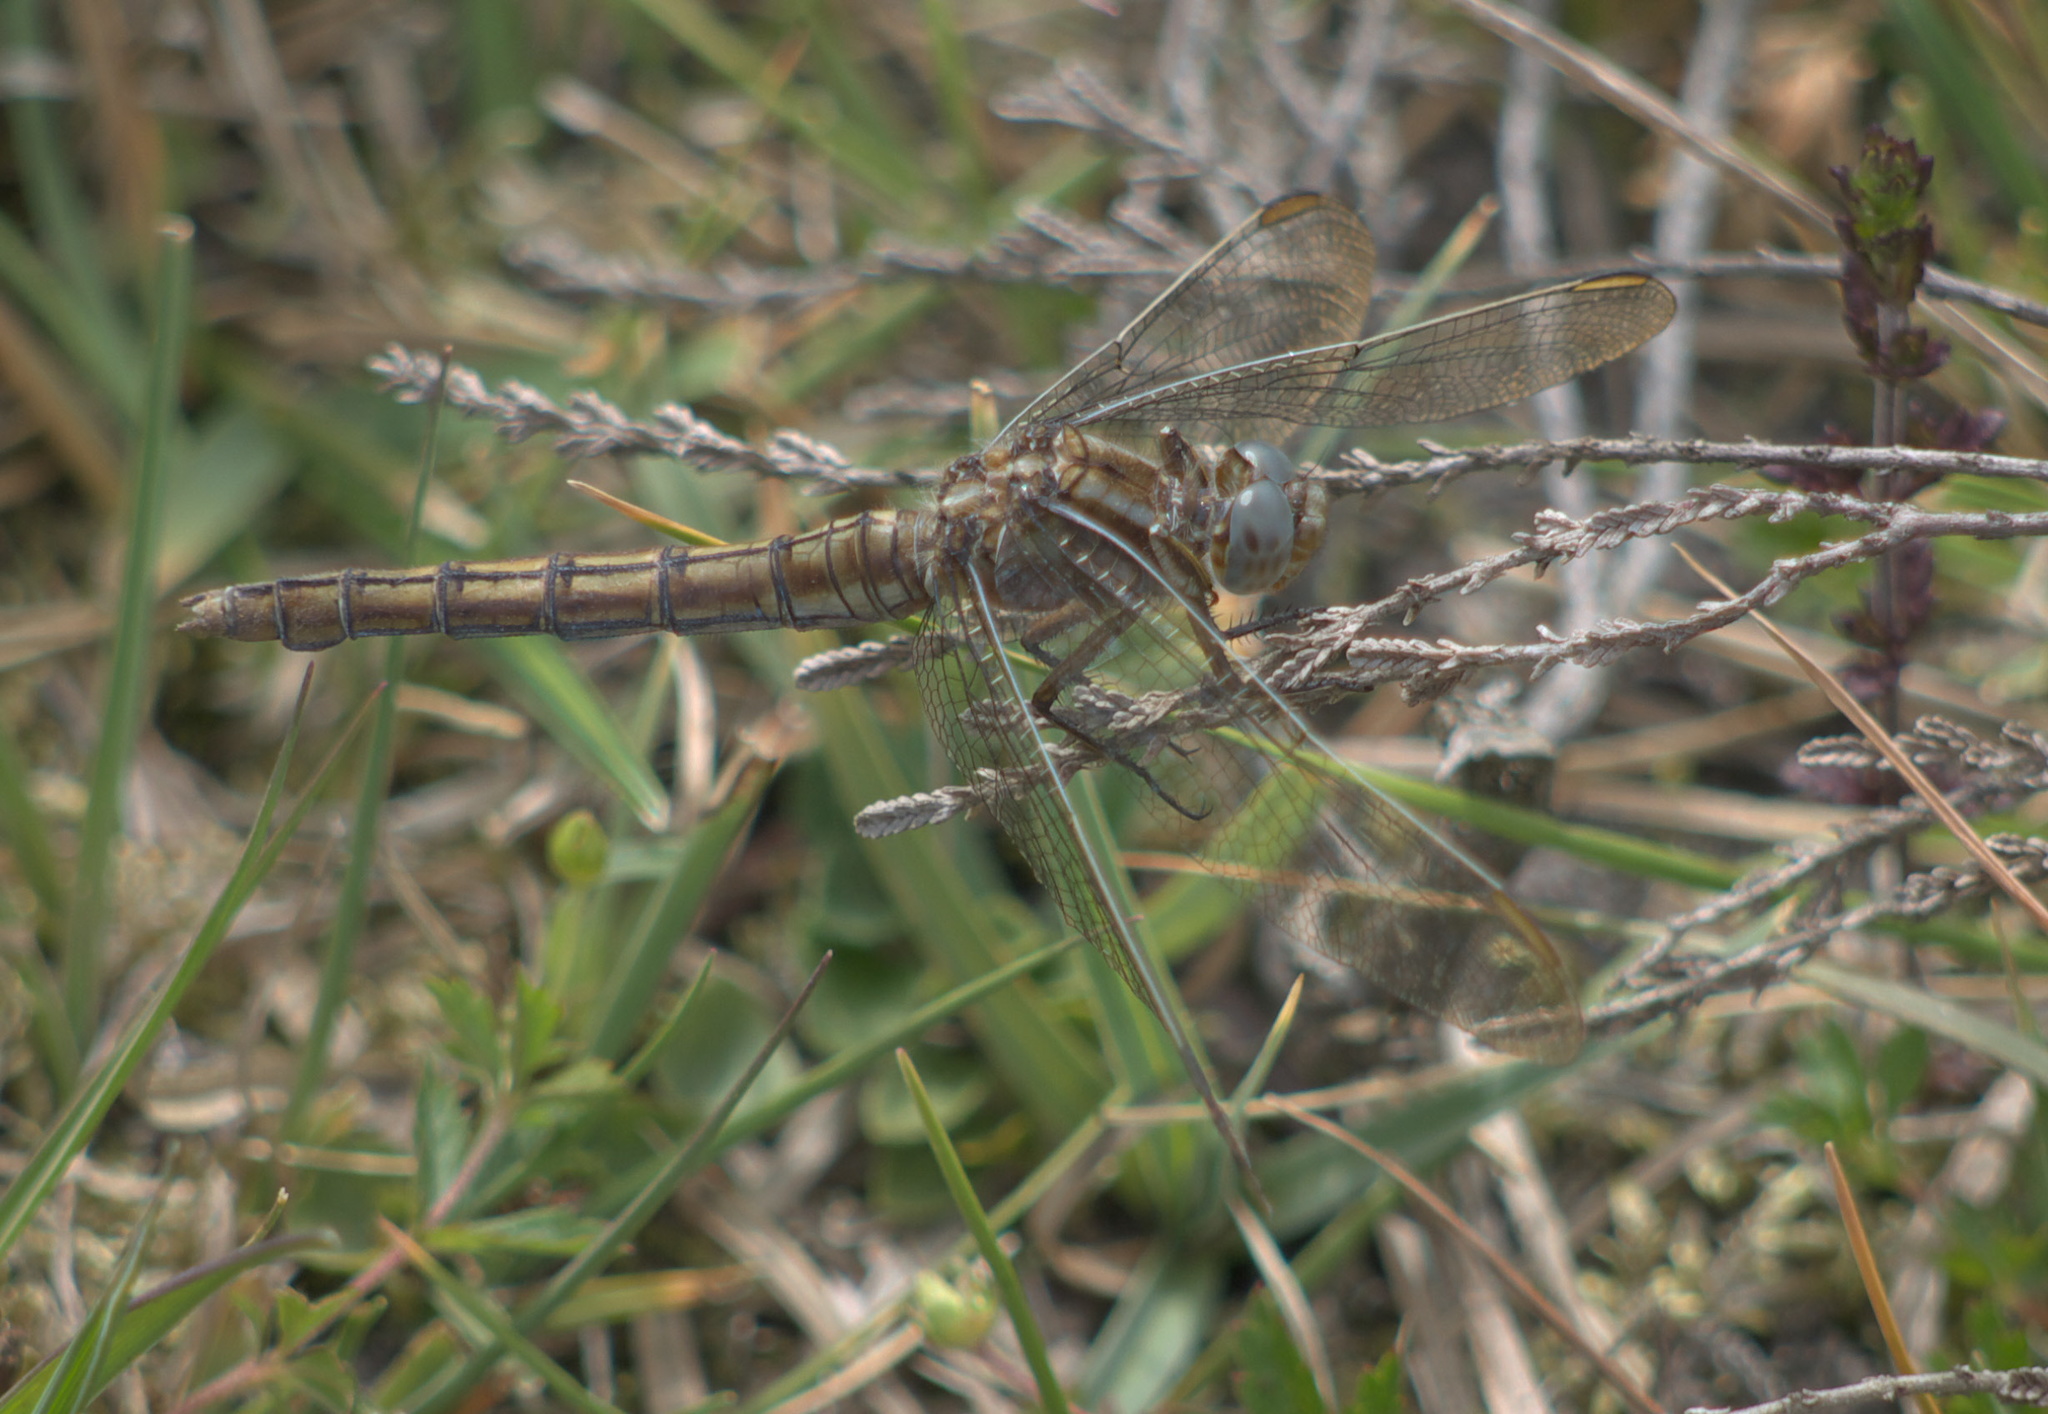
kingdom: Animalia
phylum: Arthropoda
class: Insecta
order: Odonata
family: Libellulidae
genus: Orthetrum
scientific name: Orthetrum coerulescens
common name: Keeled skimmer
